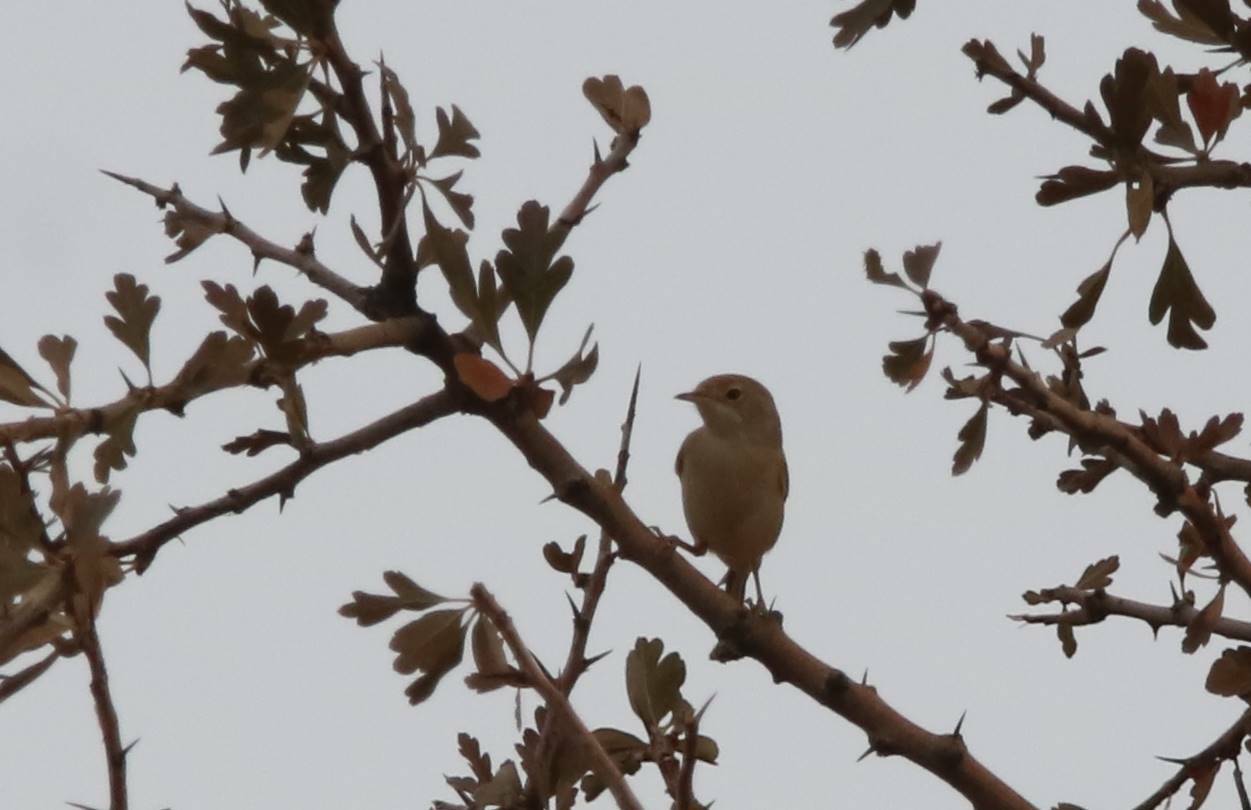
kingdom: Animalia
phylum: Chordata
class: Aves
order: Passeriformes
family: Sylviidae
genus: Sylvia
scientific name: Sylvia communis
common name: Common whitethroat
